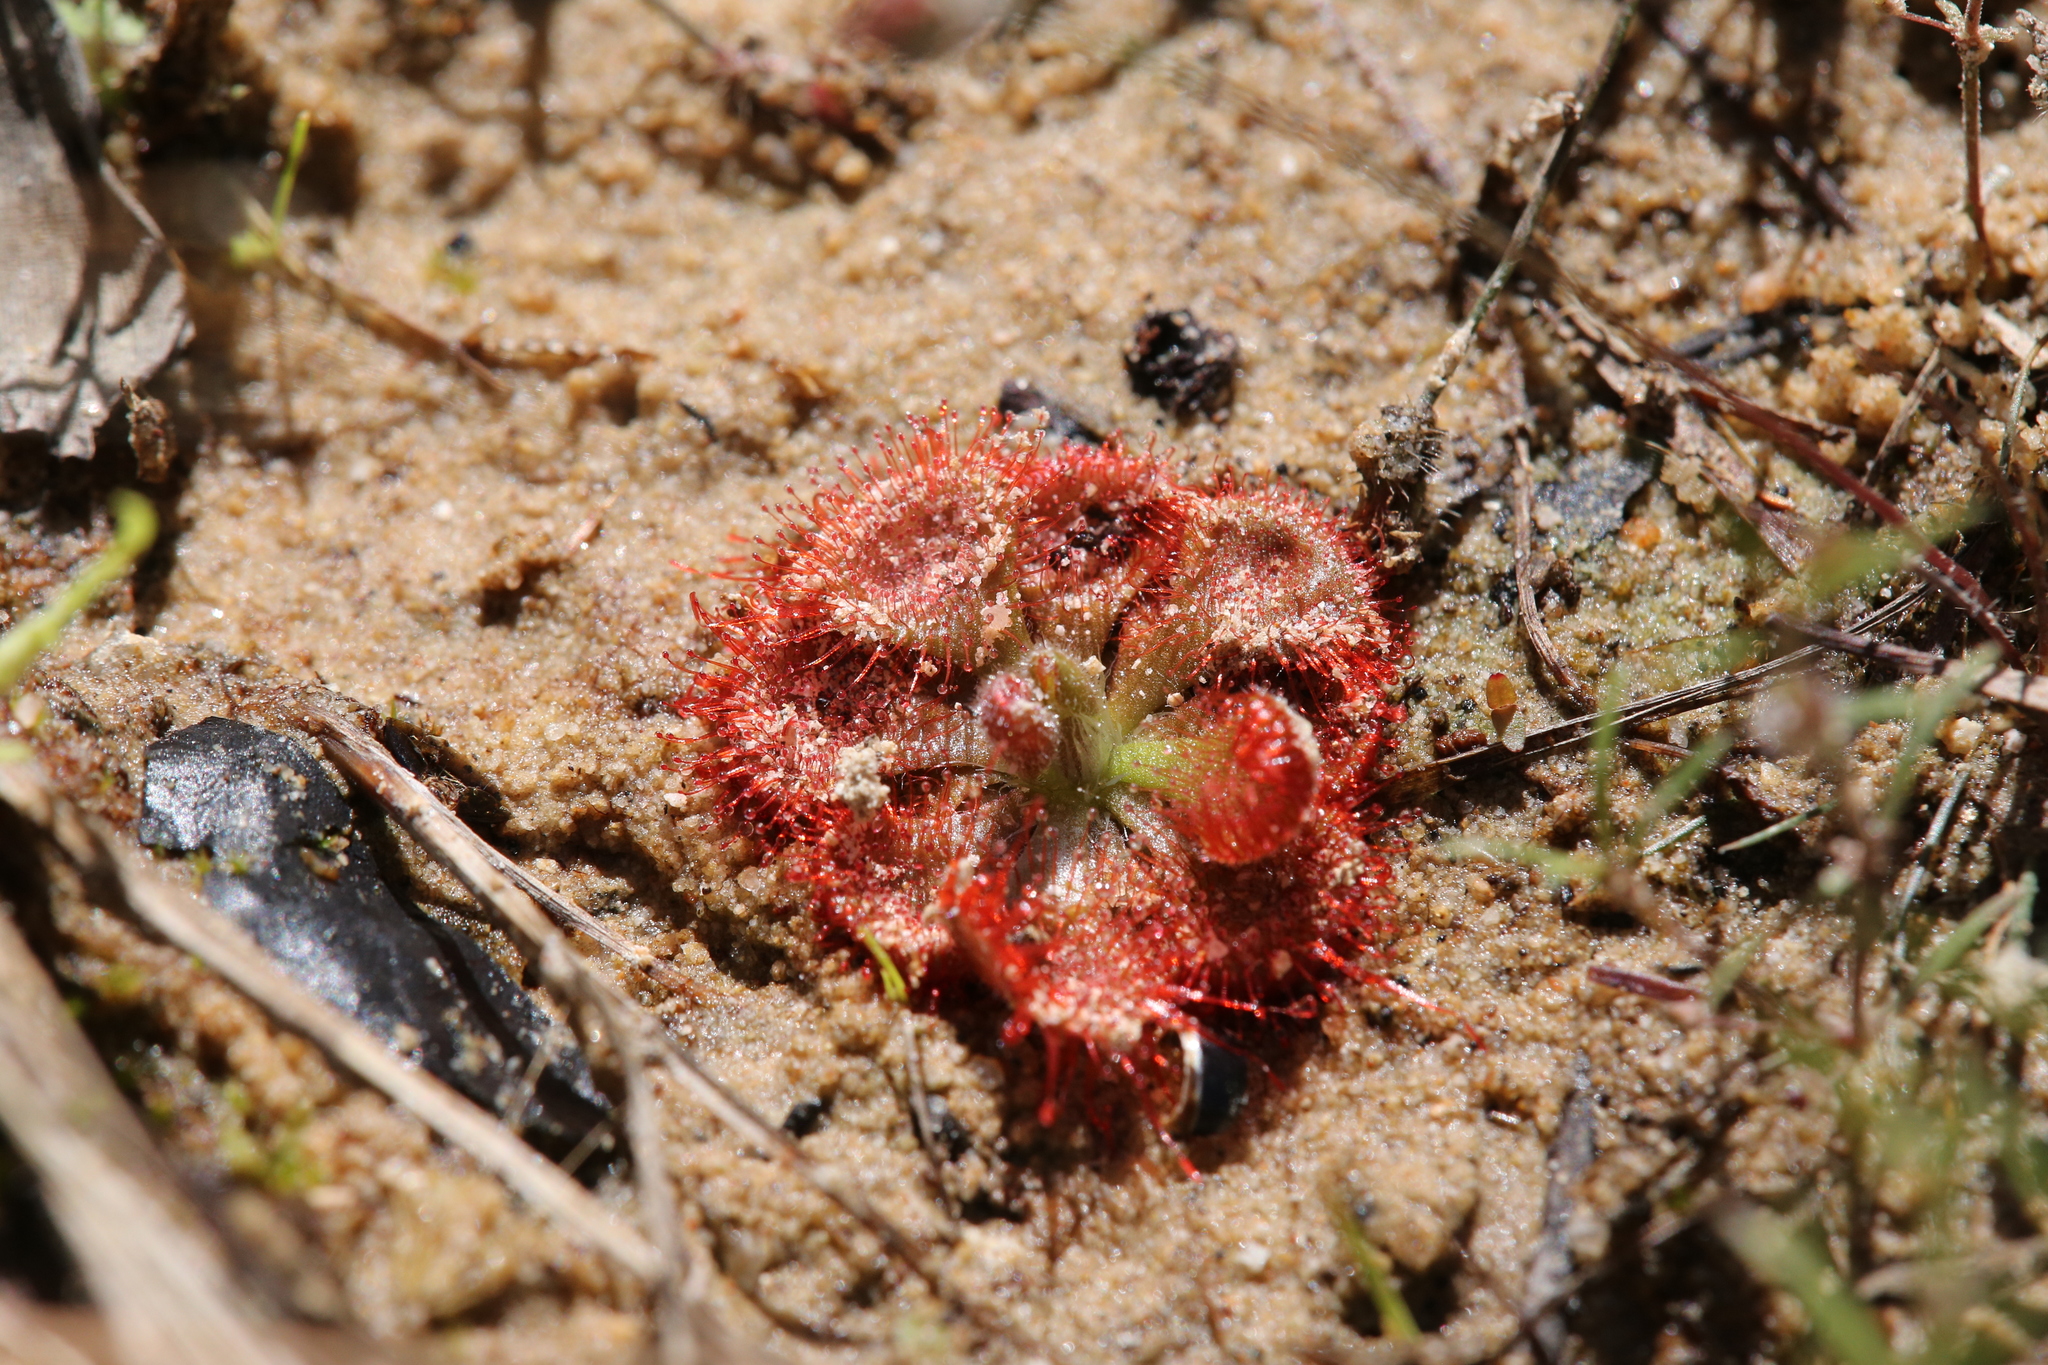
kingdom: Plantae
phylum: Tracheophyta
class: Magnoliopsida
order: Caryophyllales
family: Droseraceae
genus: Drosera
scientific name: Drosera spatulata
